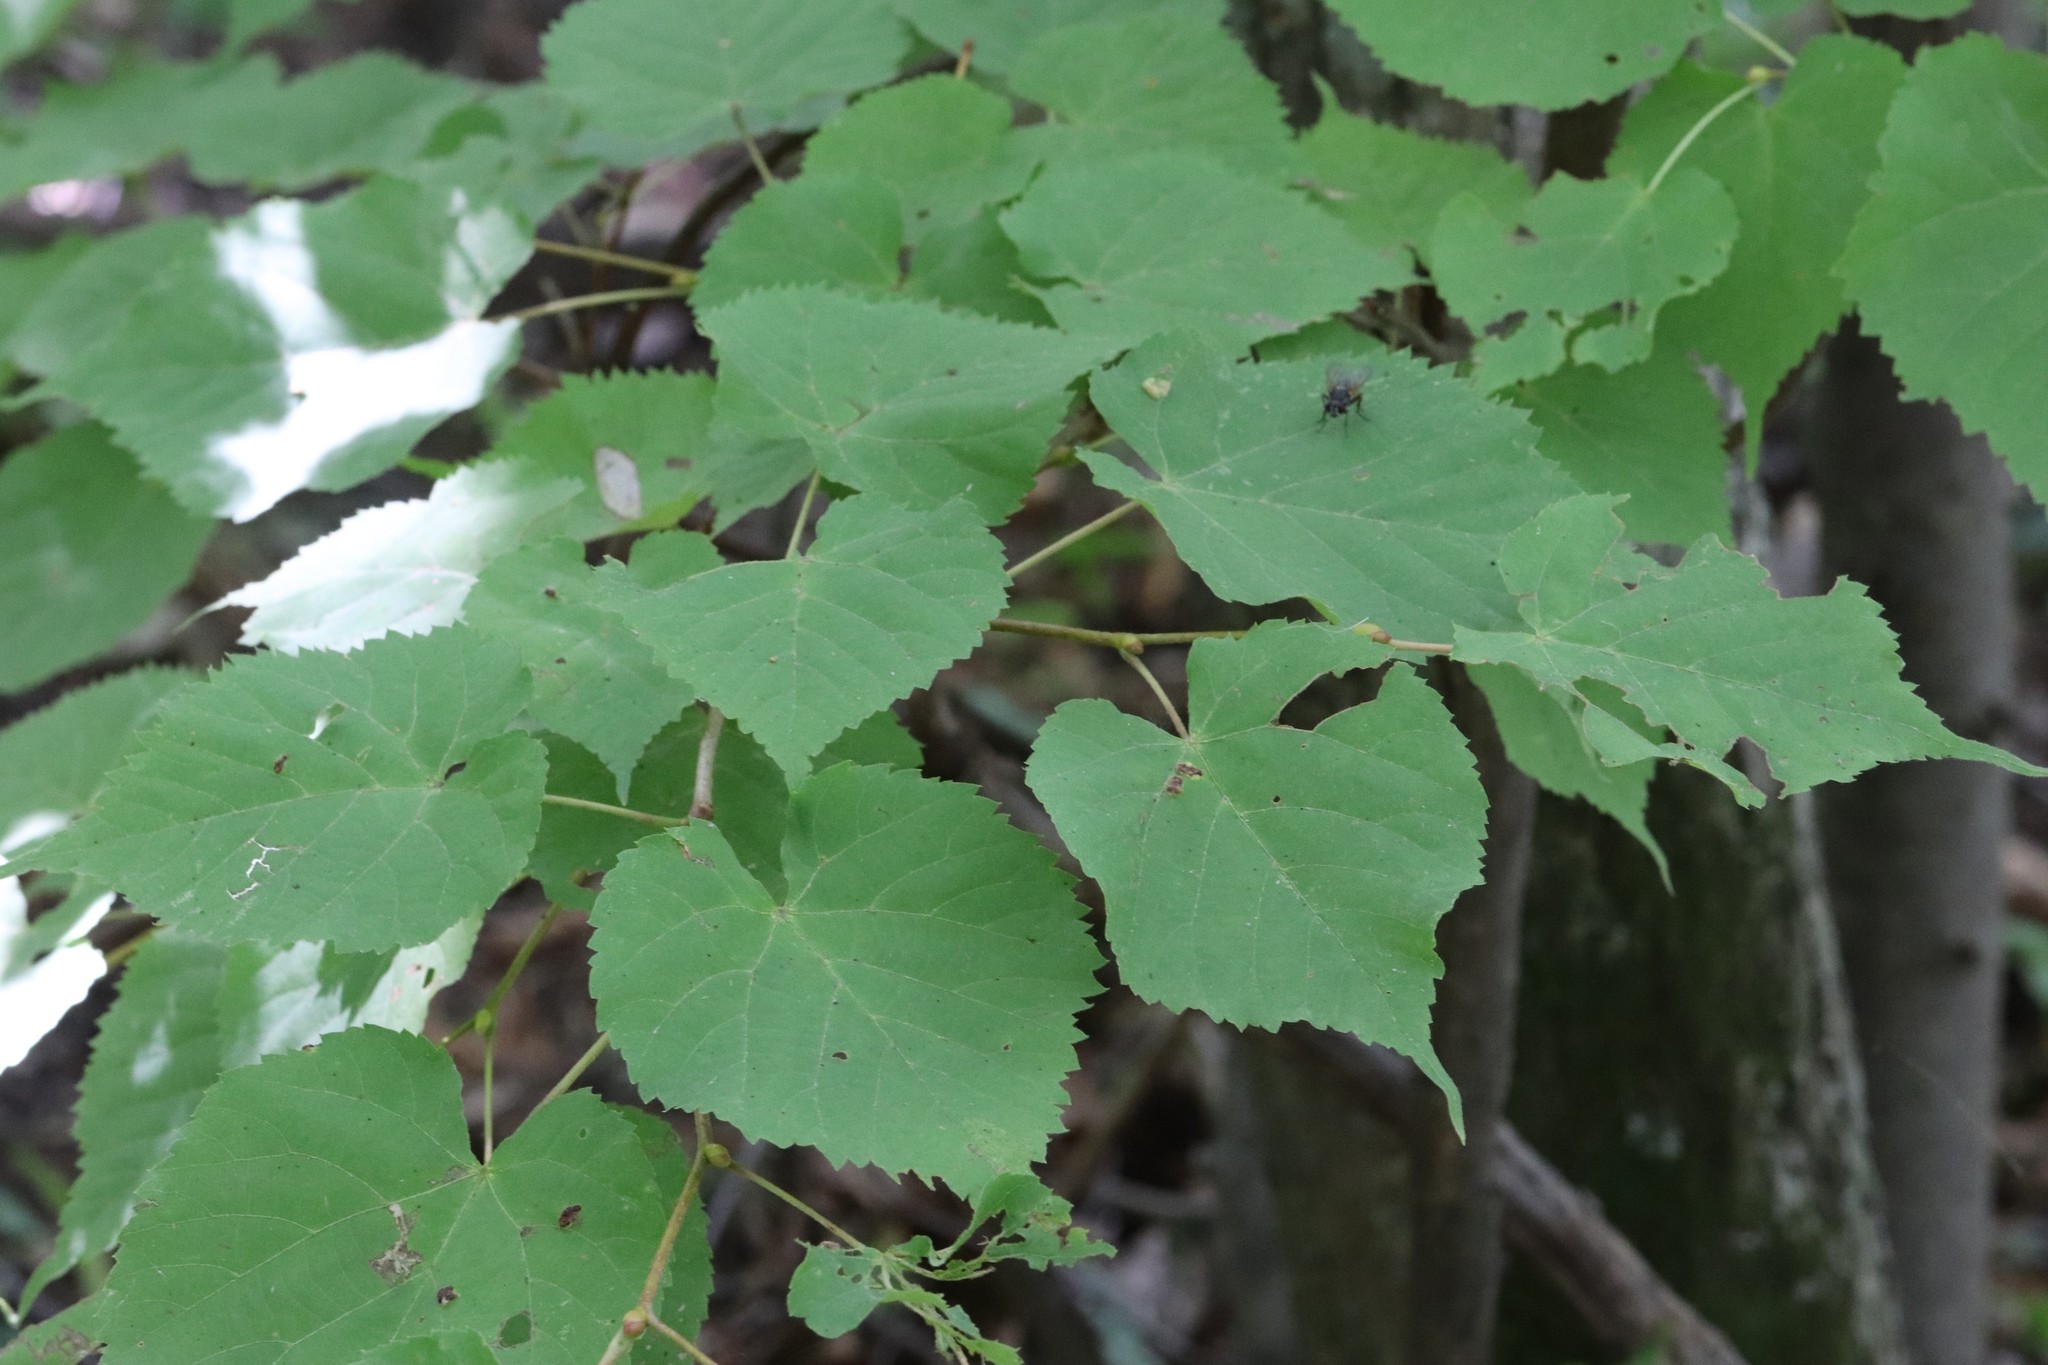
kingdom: Plantae
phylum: Tracheophyta
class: Magnoliopsida
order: Malvales
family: Malvaceae
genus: Tilia
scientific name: Tilia amurensis
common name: Amur lime
